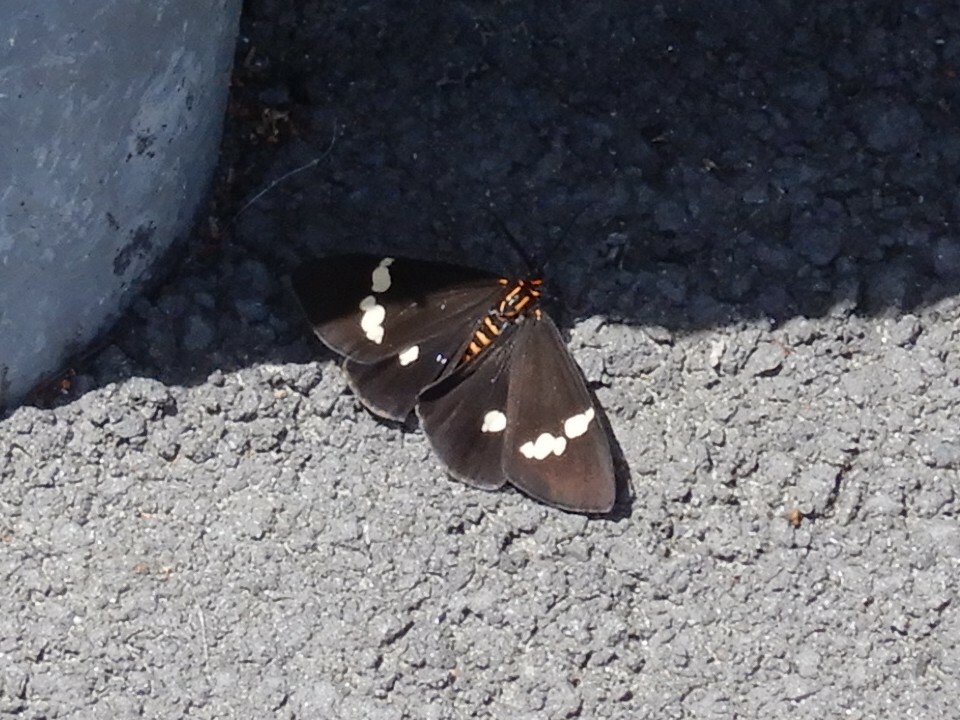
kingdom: Animalia
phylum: Arthropoda
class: Insecta
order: Lepidoptera
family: Erebidae
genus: Nyctemera
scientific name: Nyctemera annulatum
